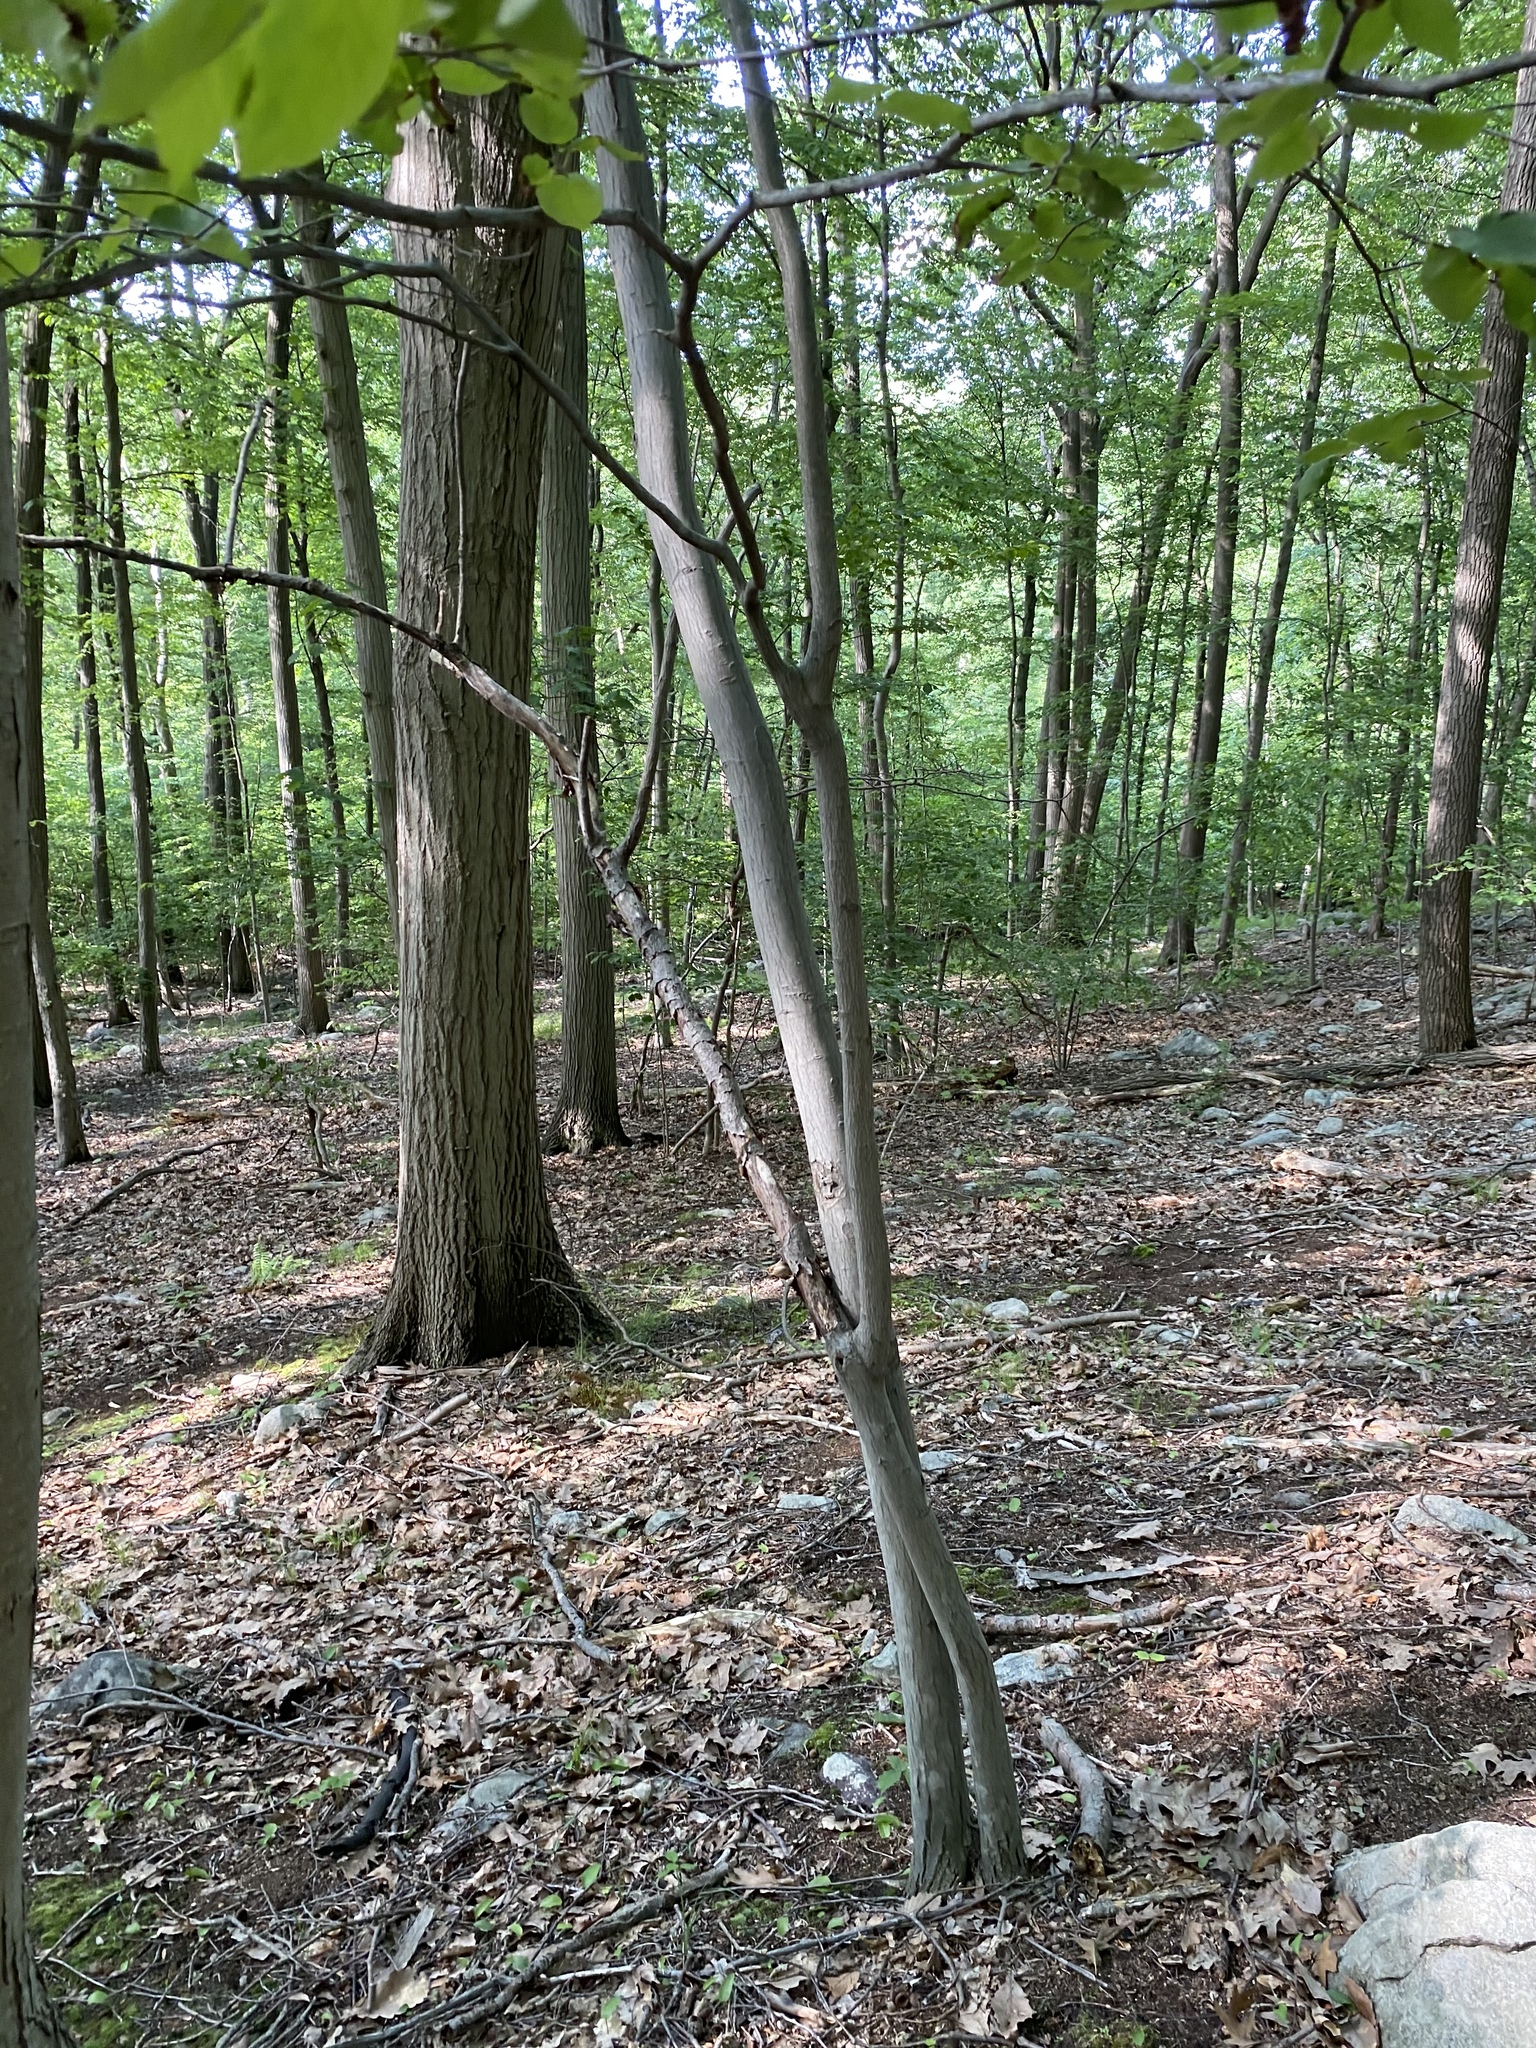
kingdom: Plantae
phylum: Tracheophyta
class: Magnoliopsida
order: Rosales
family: Rosaceae
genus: Amelanchier
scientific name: Amelanchier arborea
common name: Downy serviceberry
